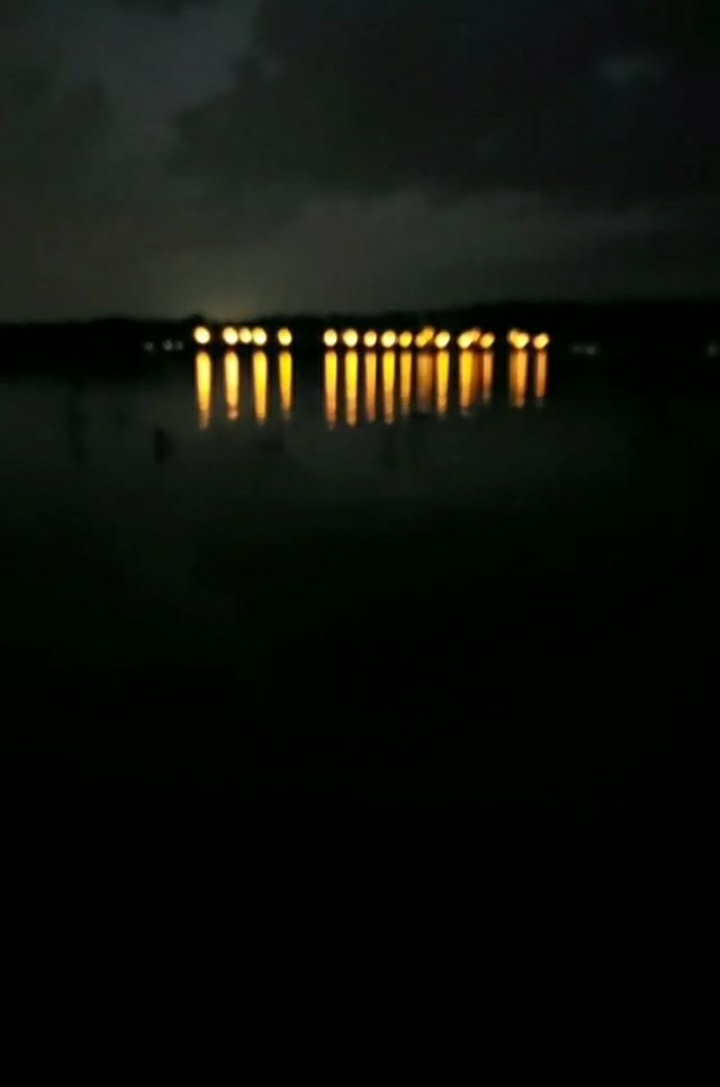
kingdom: Animalia
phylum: Chordata
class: Amphibia
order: Anura
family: Hylidae
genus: Acris
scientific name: Acris blanchardi
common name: Blanchard's cricket frog
